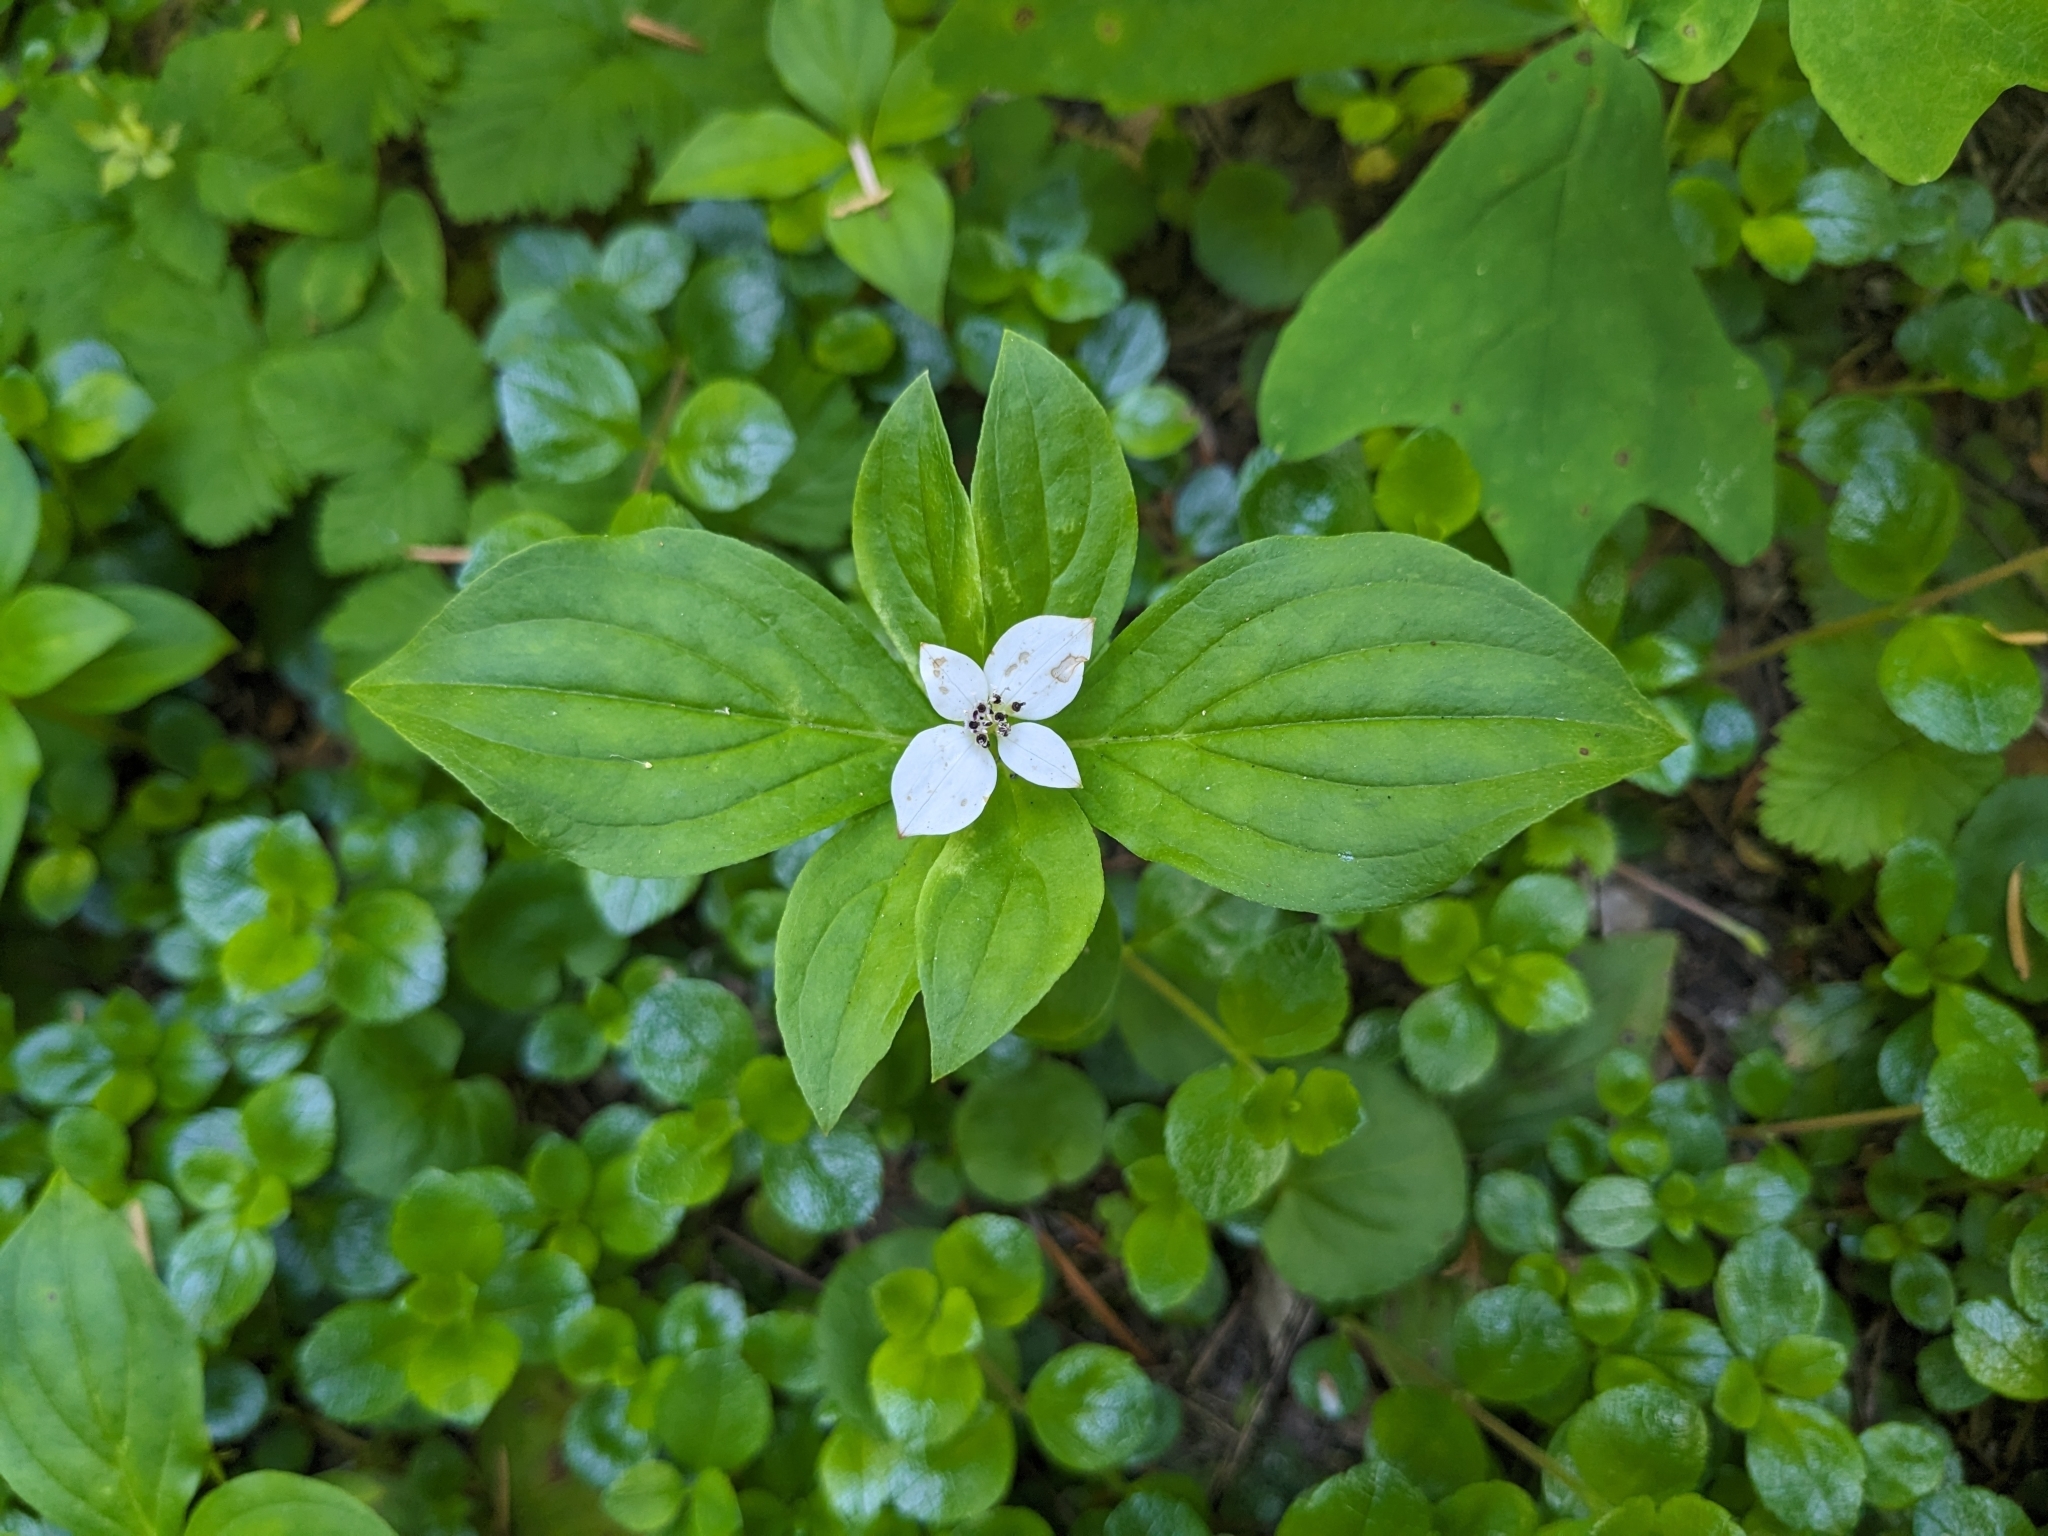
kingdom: Plantae
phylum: Tracheophyta
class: Magnoliopsida
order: Cornales
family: Cornaceae
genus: Cornus
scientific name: Cornus unalaschkensis
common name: Alaska bunchberry
